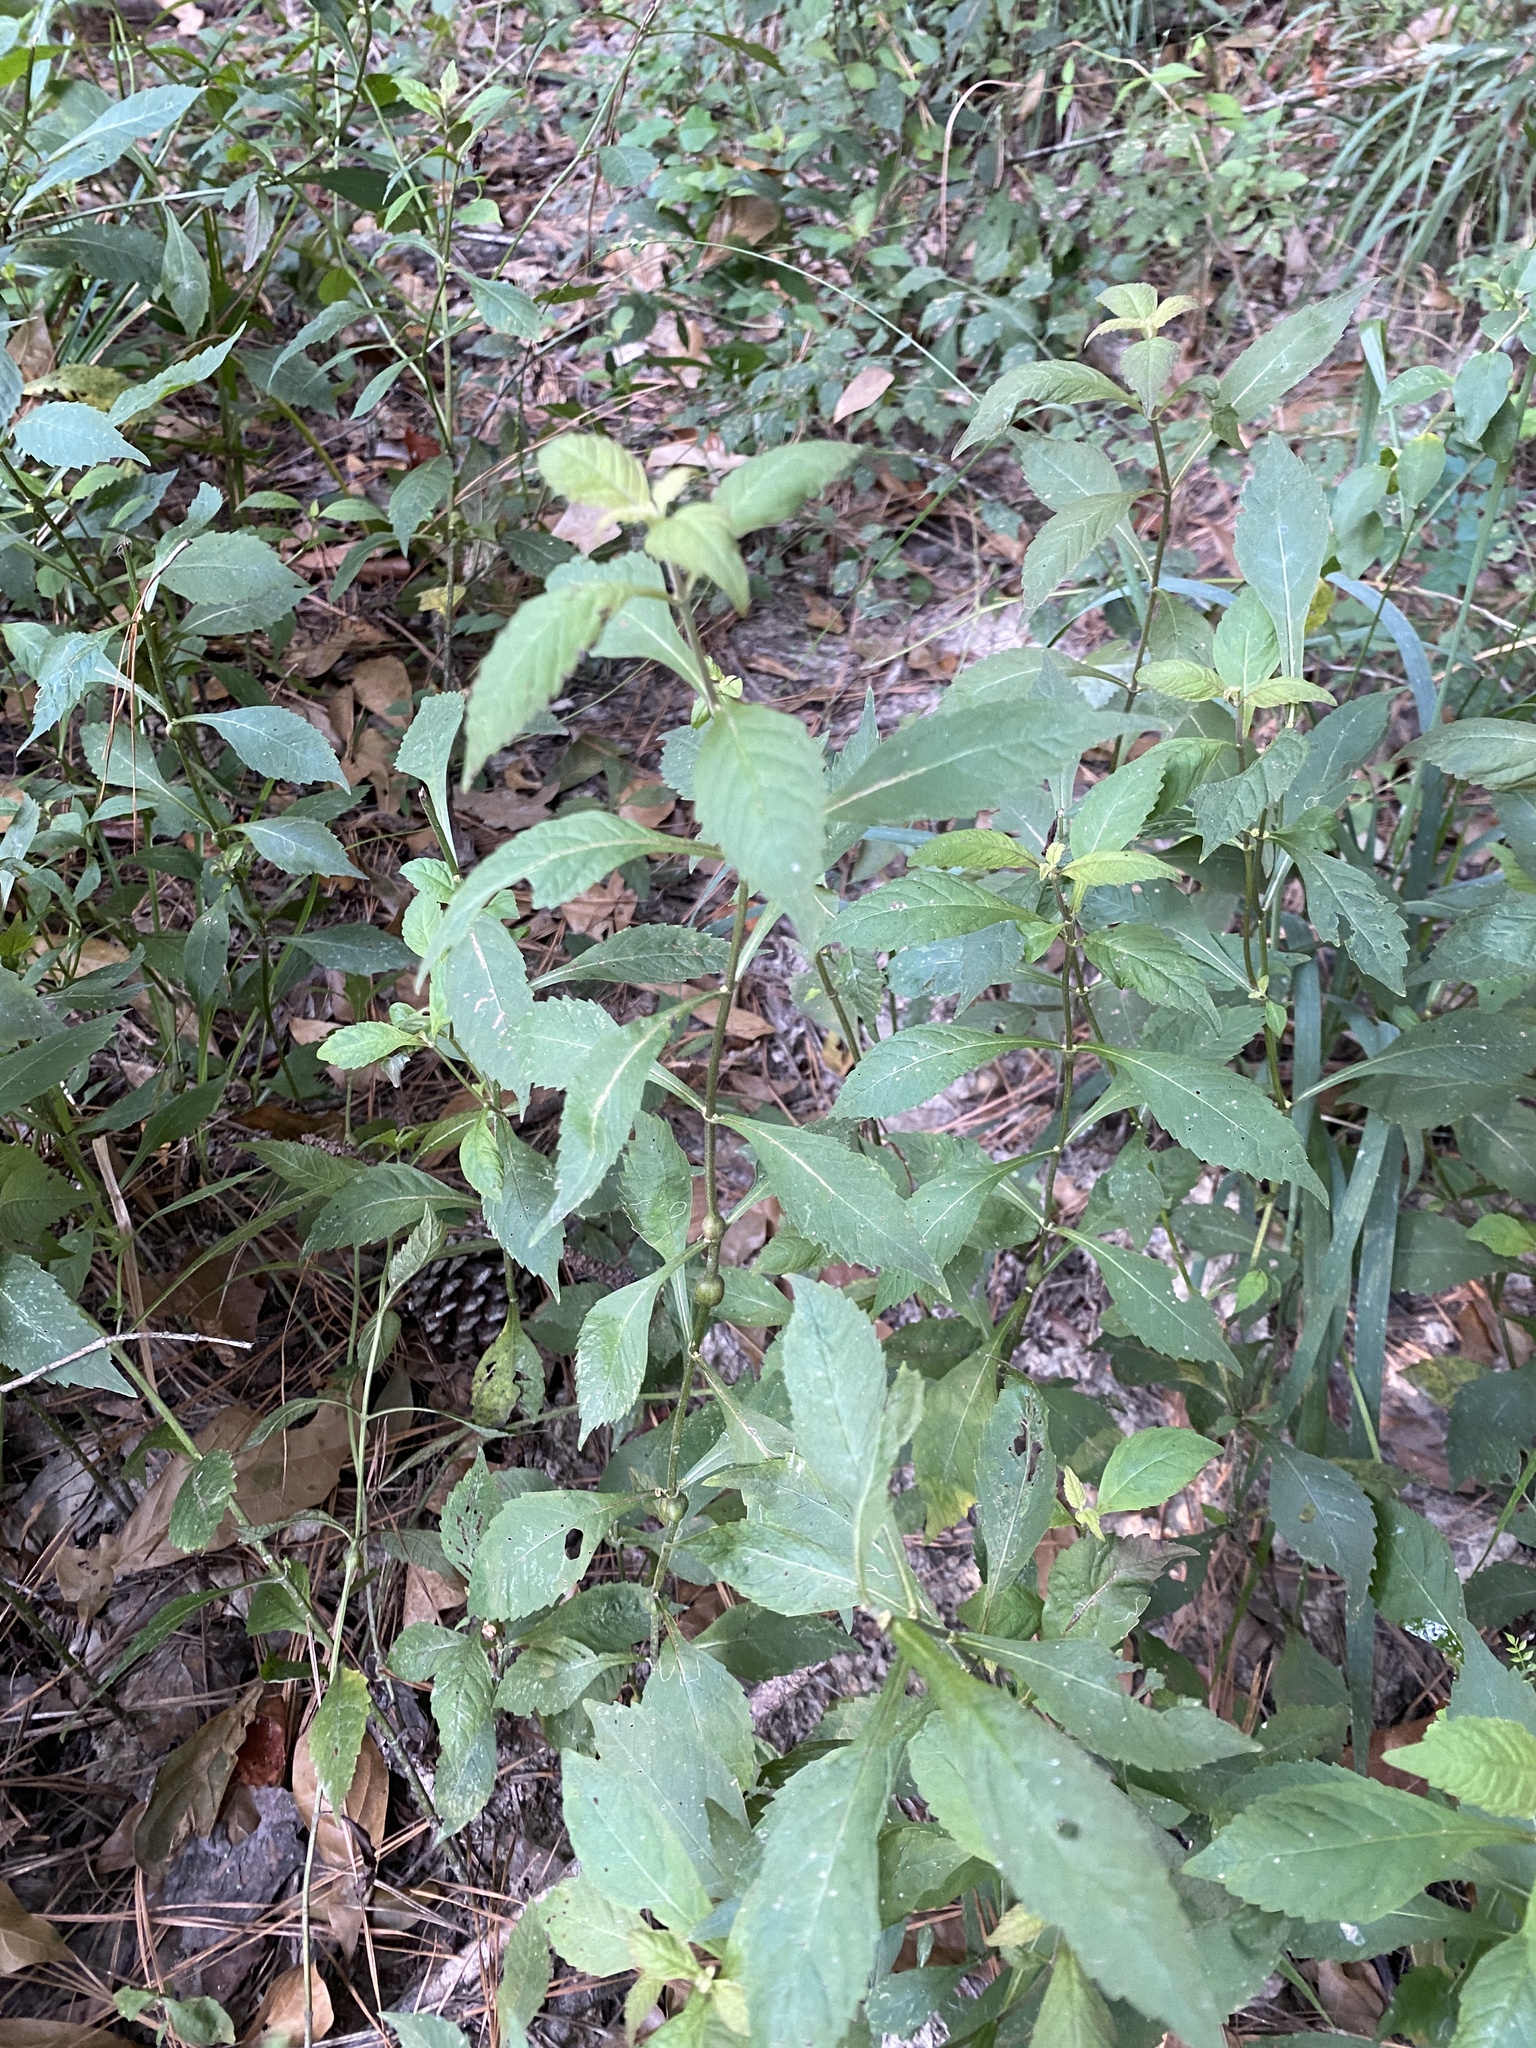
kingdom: Animalia
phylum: Arthropoda
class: Insecta
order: Diptera
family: Cecidomyiidae
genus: Neolasioptera
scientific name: Neolasioptera lycopi
